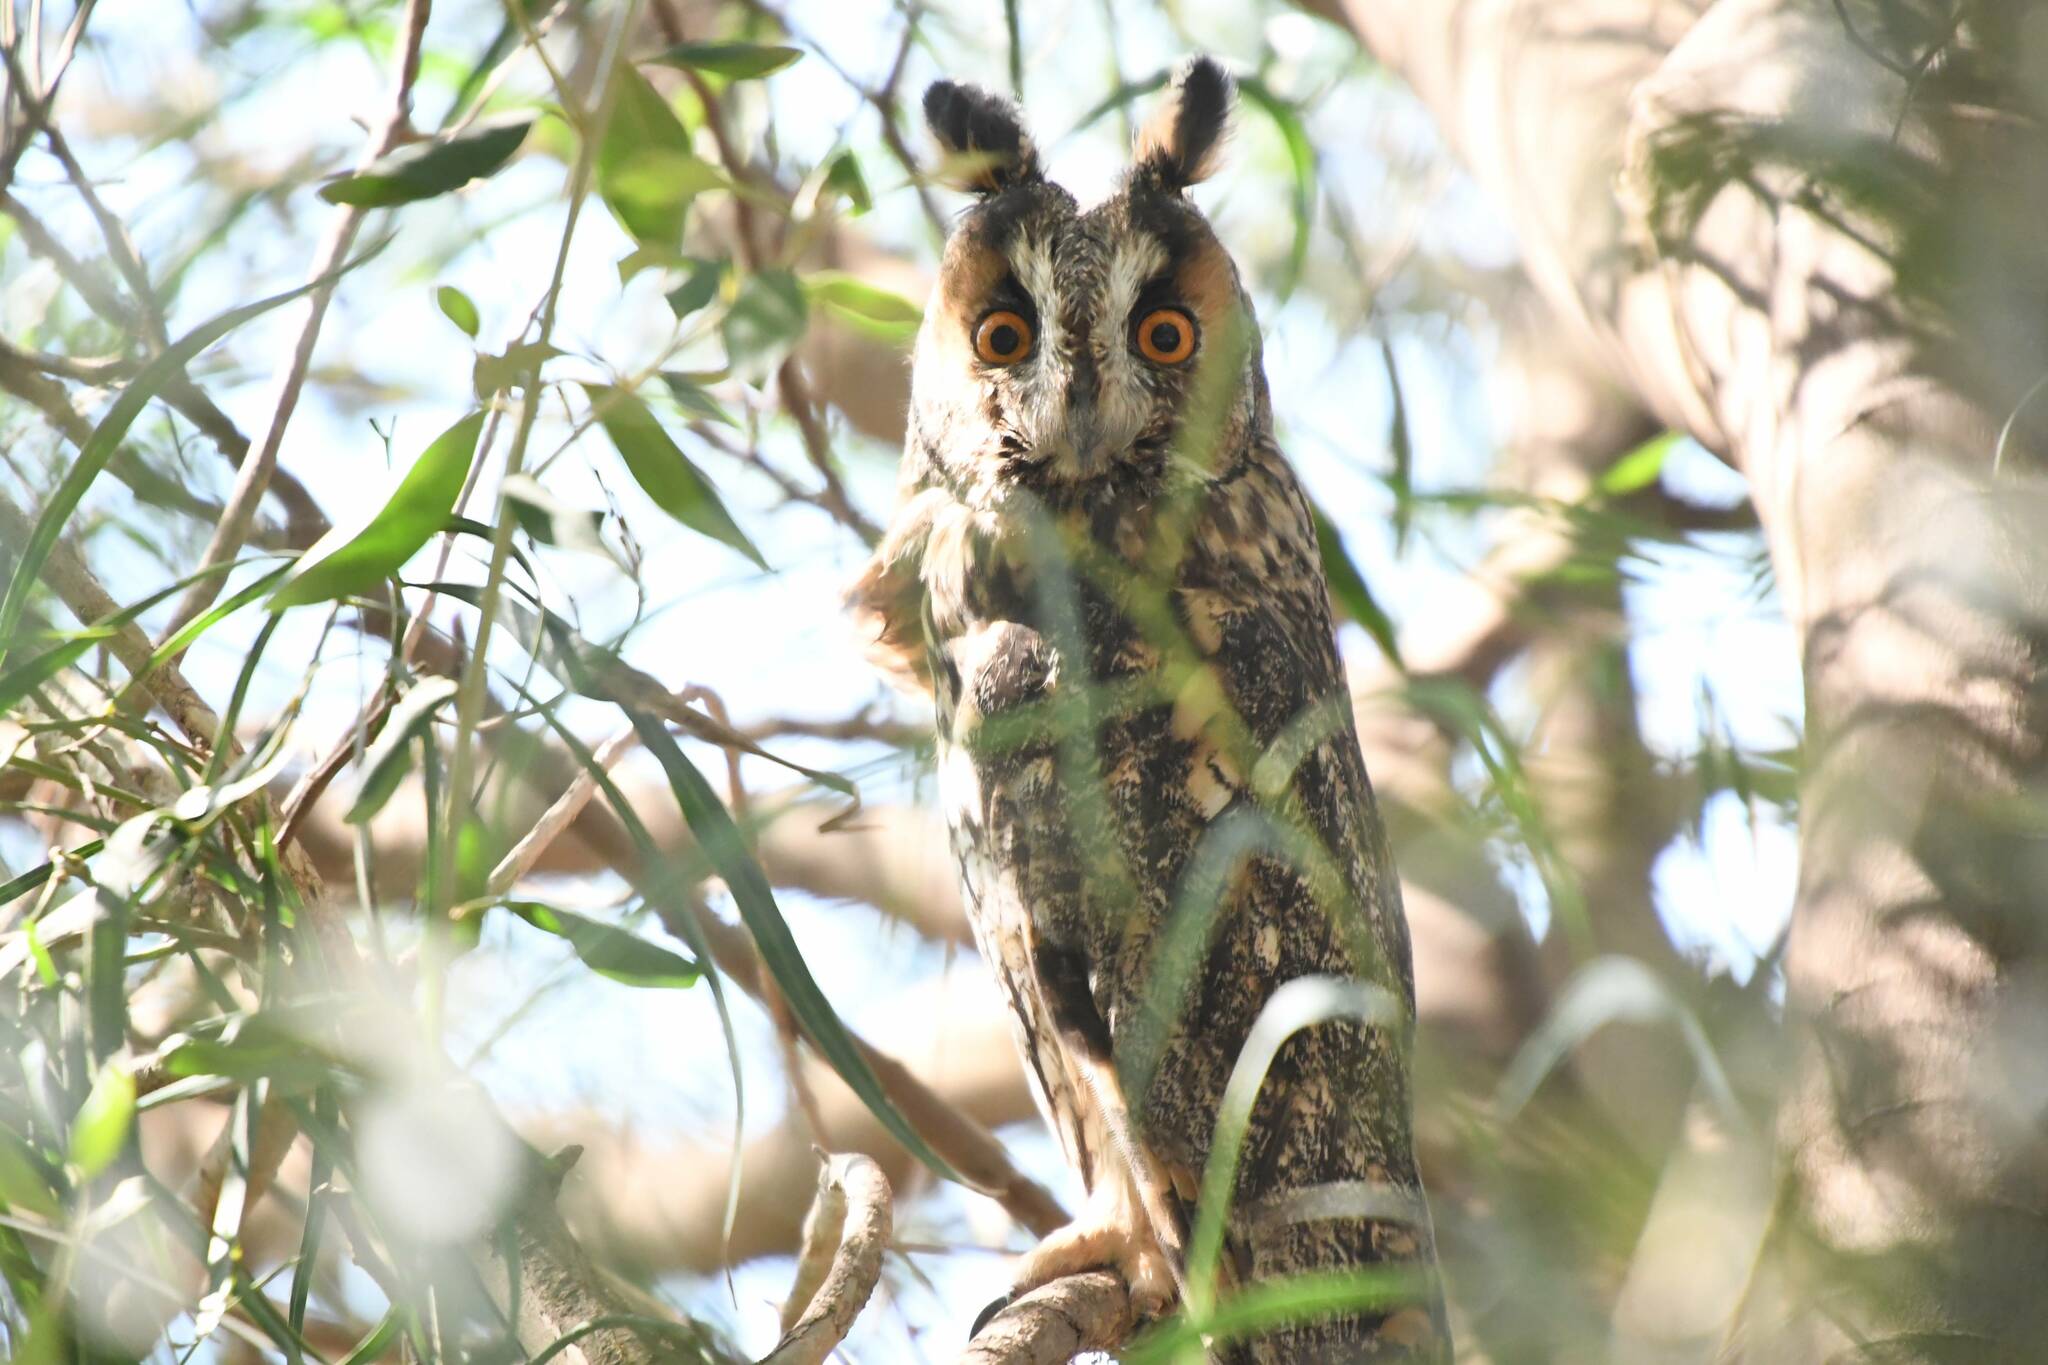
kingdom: Animalia
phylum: Chordata
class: Aves
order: Strigiformes
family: Strigidae
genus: Asio
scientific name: Asio otus
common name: Long-eared owl
